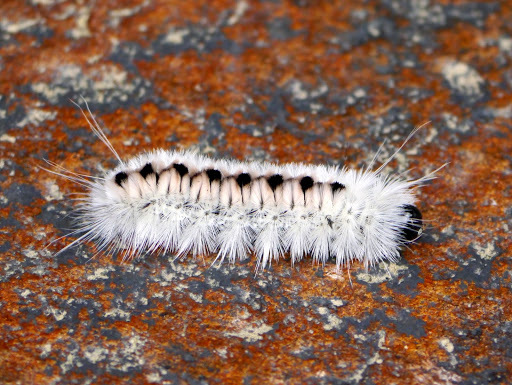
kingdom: Animalia
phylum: Arthropoda
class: Insecta
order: Lepidoptera
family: Erebidae
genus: Lophocampa
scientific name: Lophocampa caryae
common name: Hickory tussock moth
